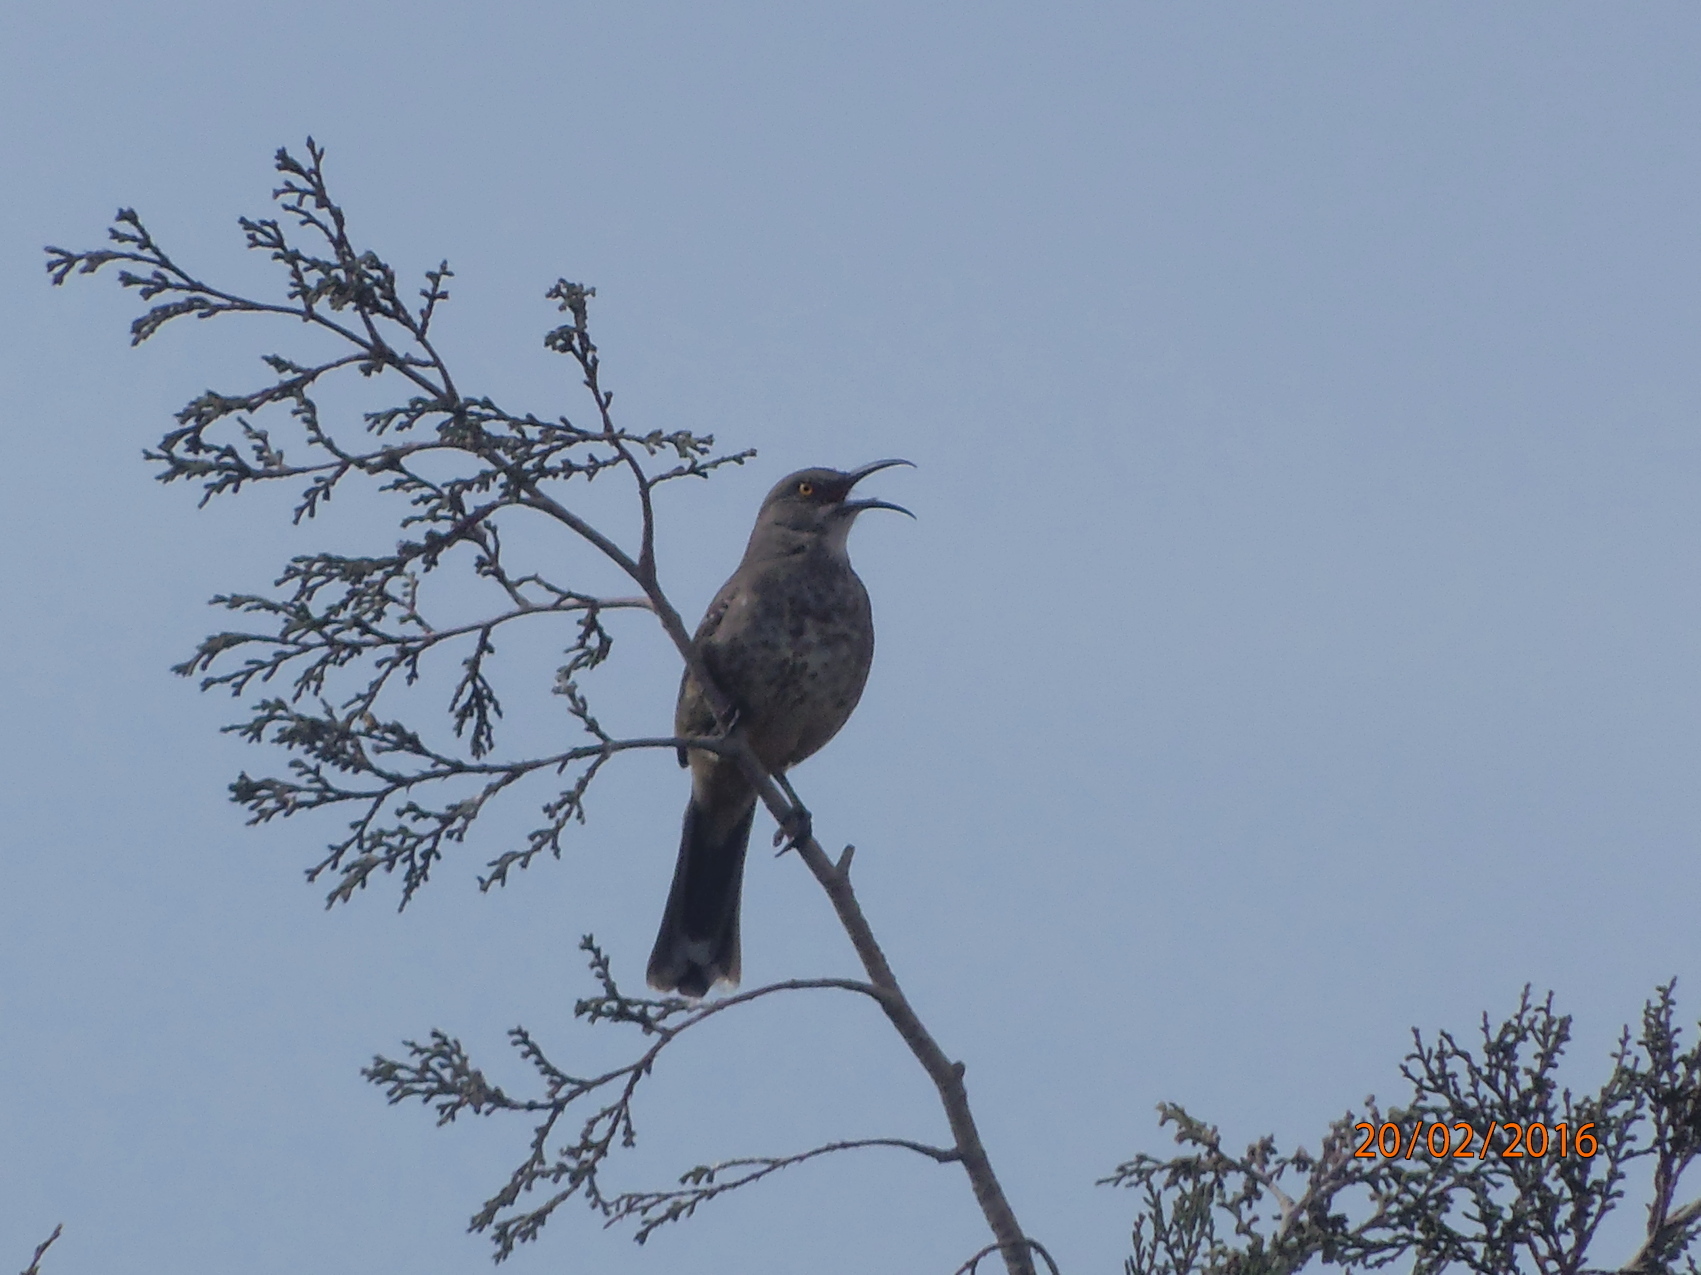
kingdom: Animalia
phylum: Chordata
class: Aves
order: Passeriformes
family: Mimidae
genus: Toxostoma
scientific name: Toxostoma curvirostre
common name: Curve-billed thrasher
